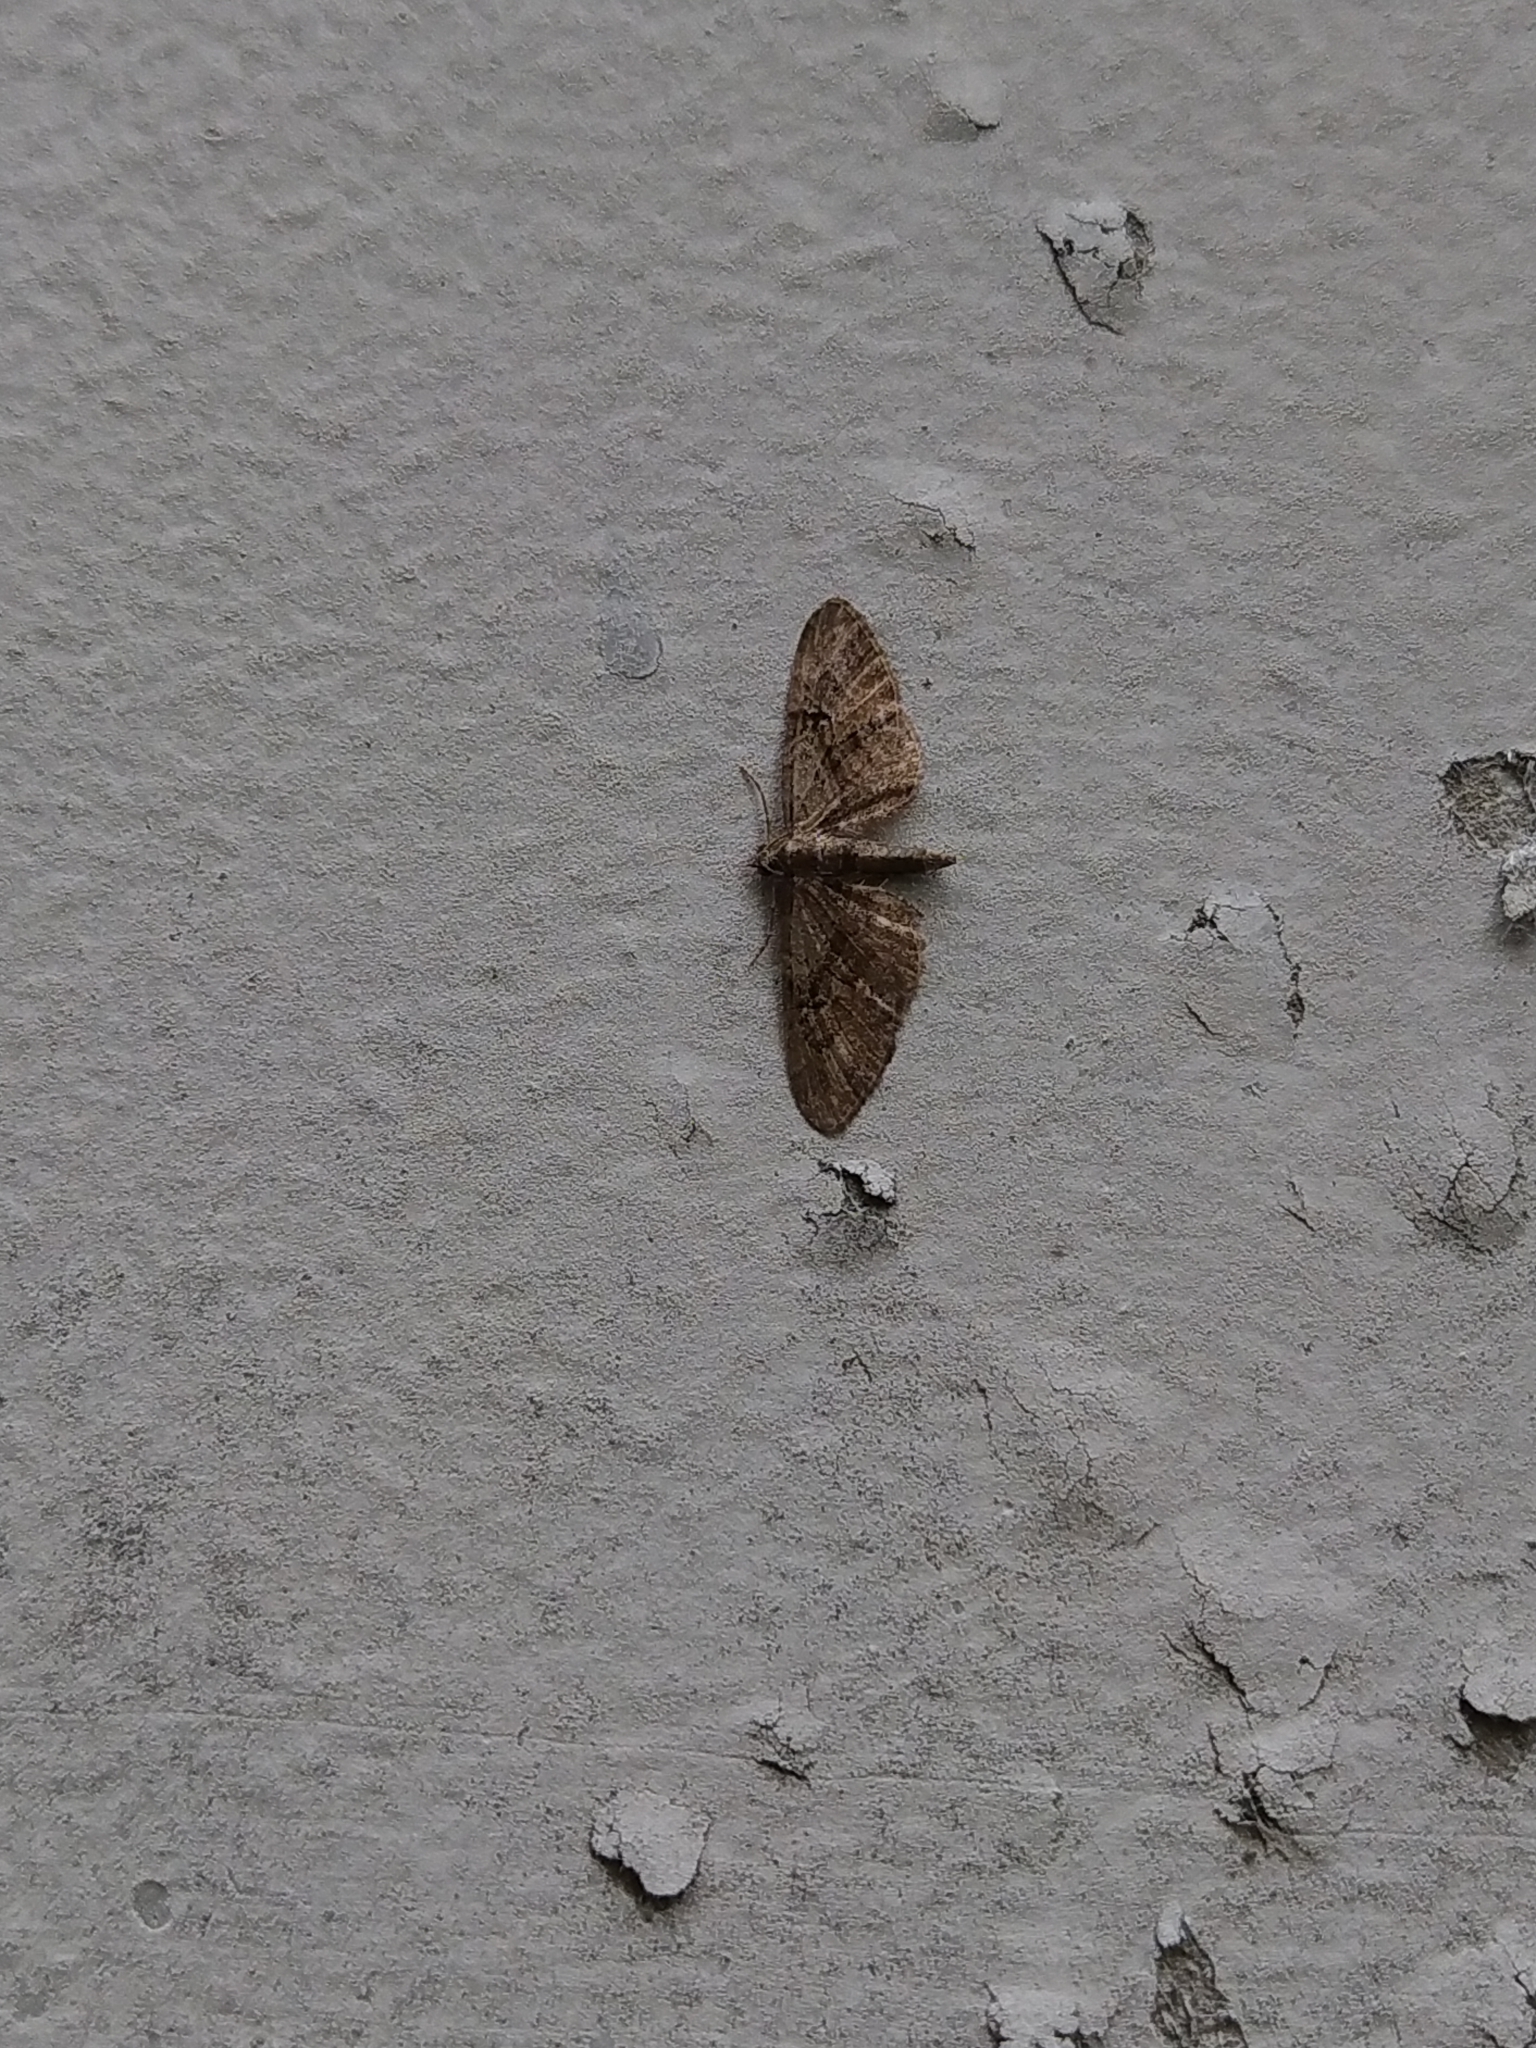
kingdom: Animalia
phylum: Arthropoda
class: Insecta
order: Lepidoptera
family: Geometridae
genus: Eupithecia
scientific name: Eupithecia pusillata
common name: Juniper pug
